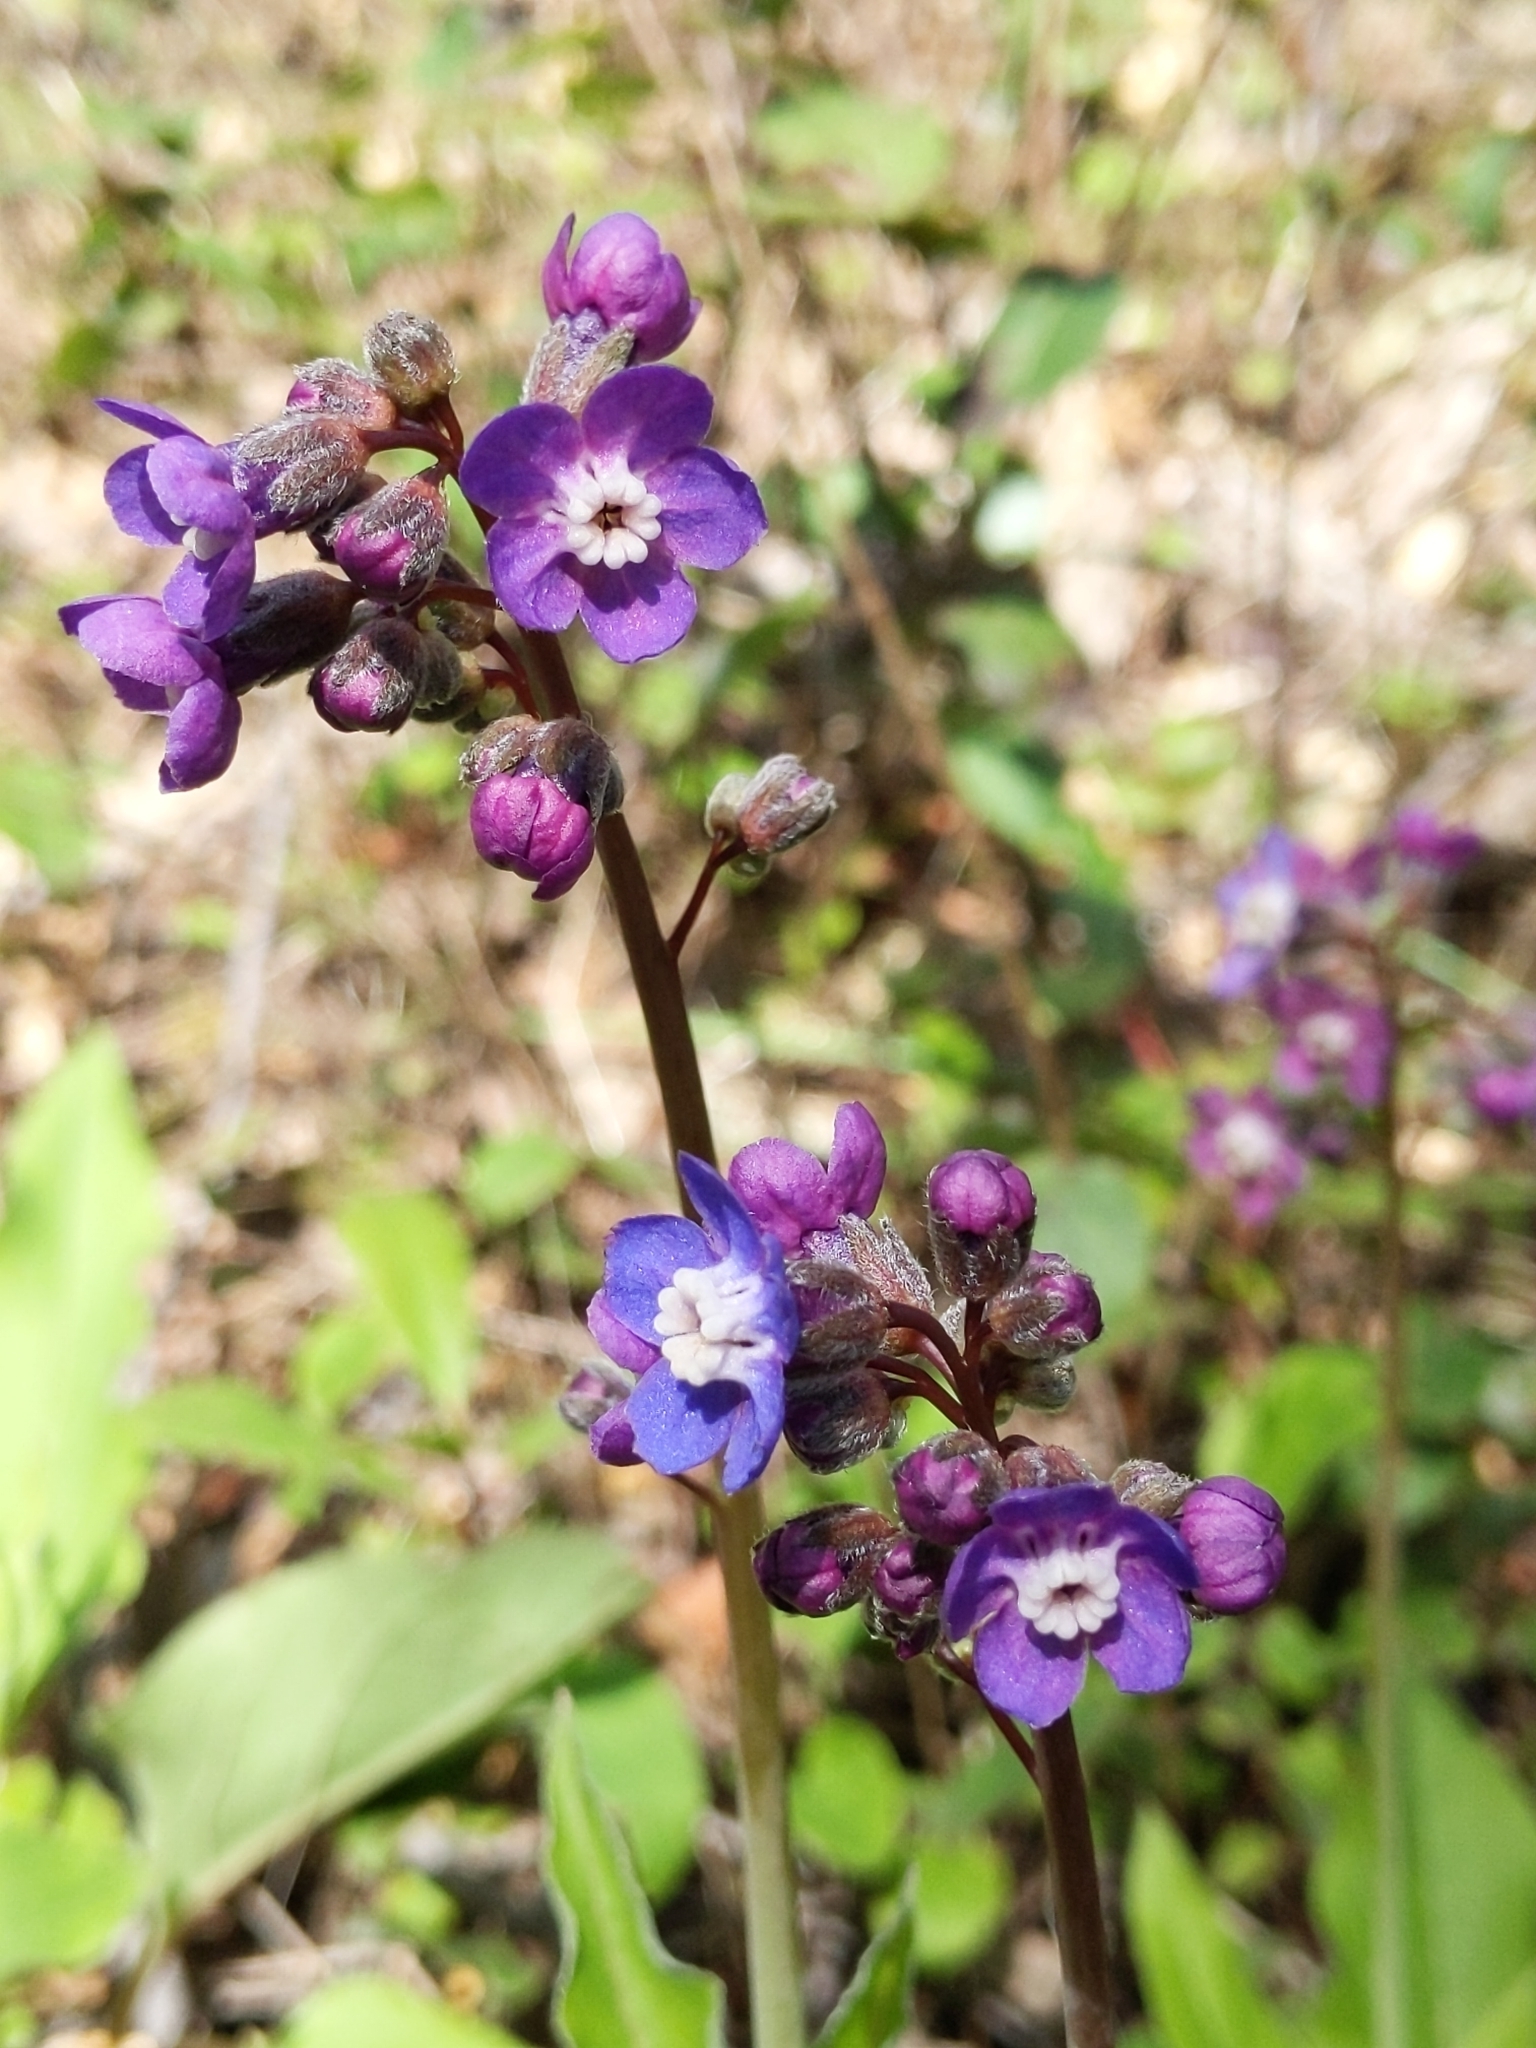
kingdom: Plantae
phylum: Tracheophyta
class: Magnoliopsida
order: Boraginales
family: Boraginaceae
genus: Adelinia
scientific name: Adelinia grande
